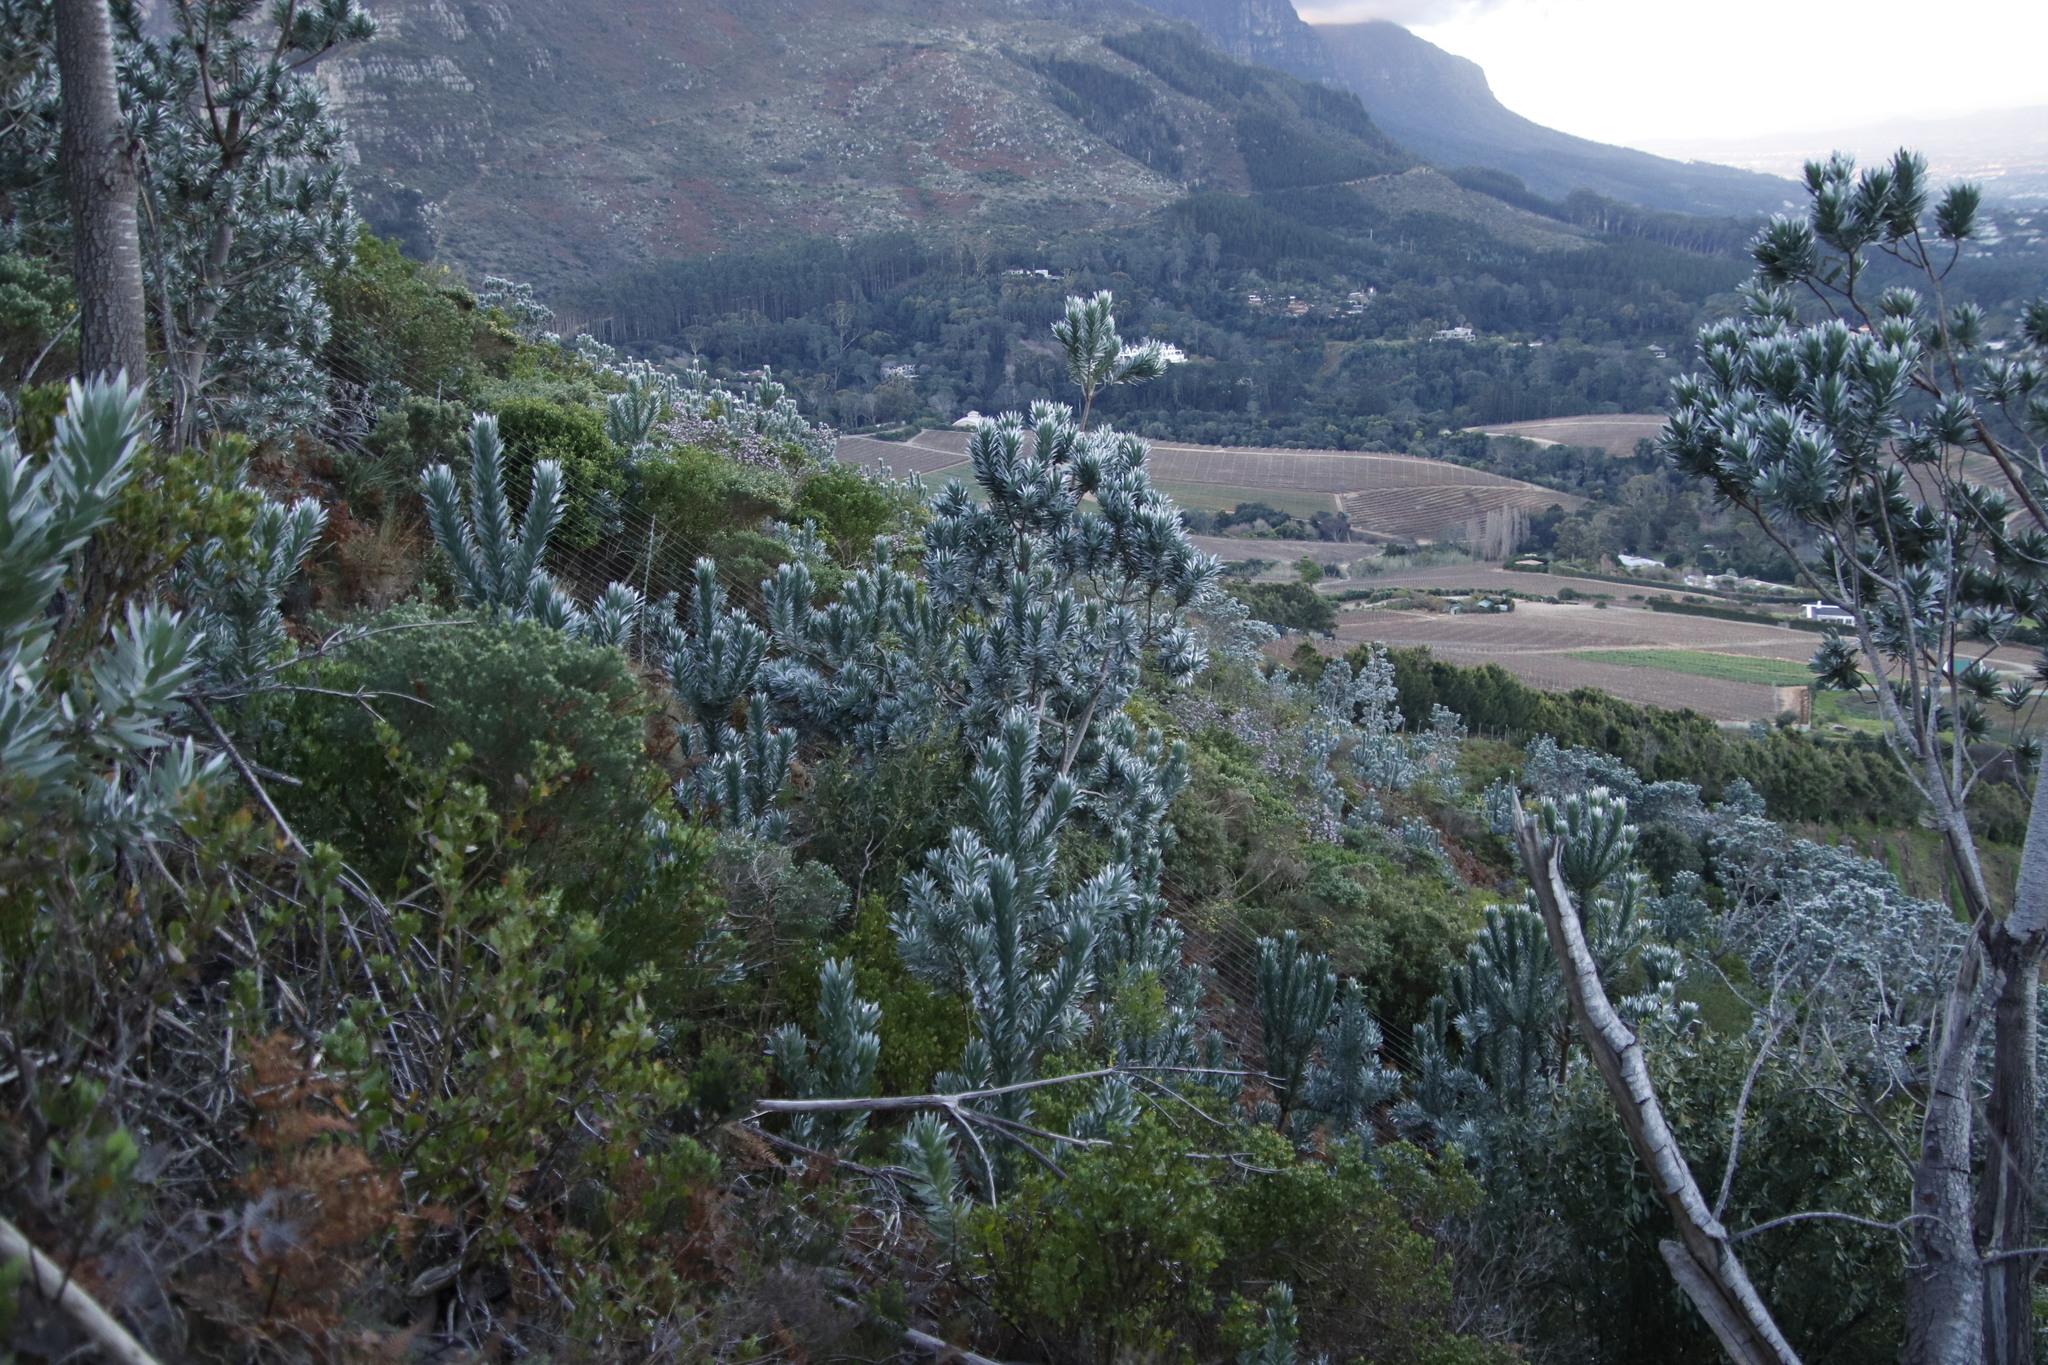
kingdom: Plantae
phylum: Tracheophyta
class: Magnoliopsida
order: Proteales
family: Proteaceae
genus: Leucadendron
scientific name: Leucadendron argenteum
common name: Cape silver tree
